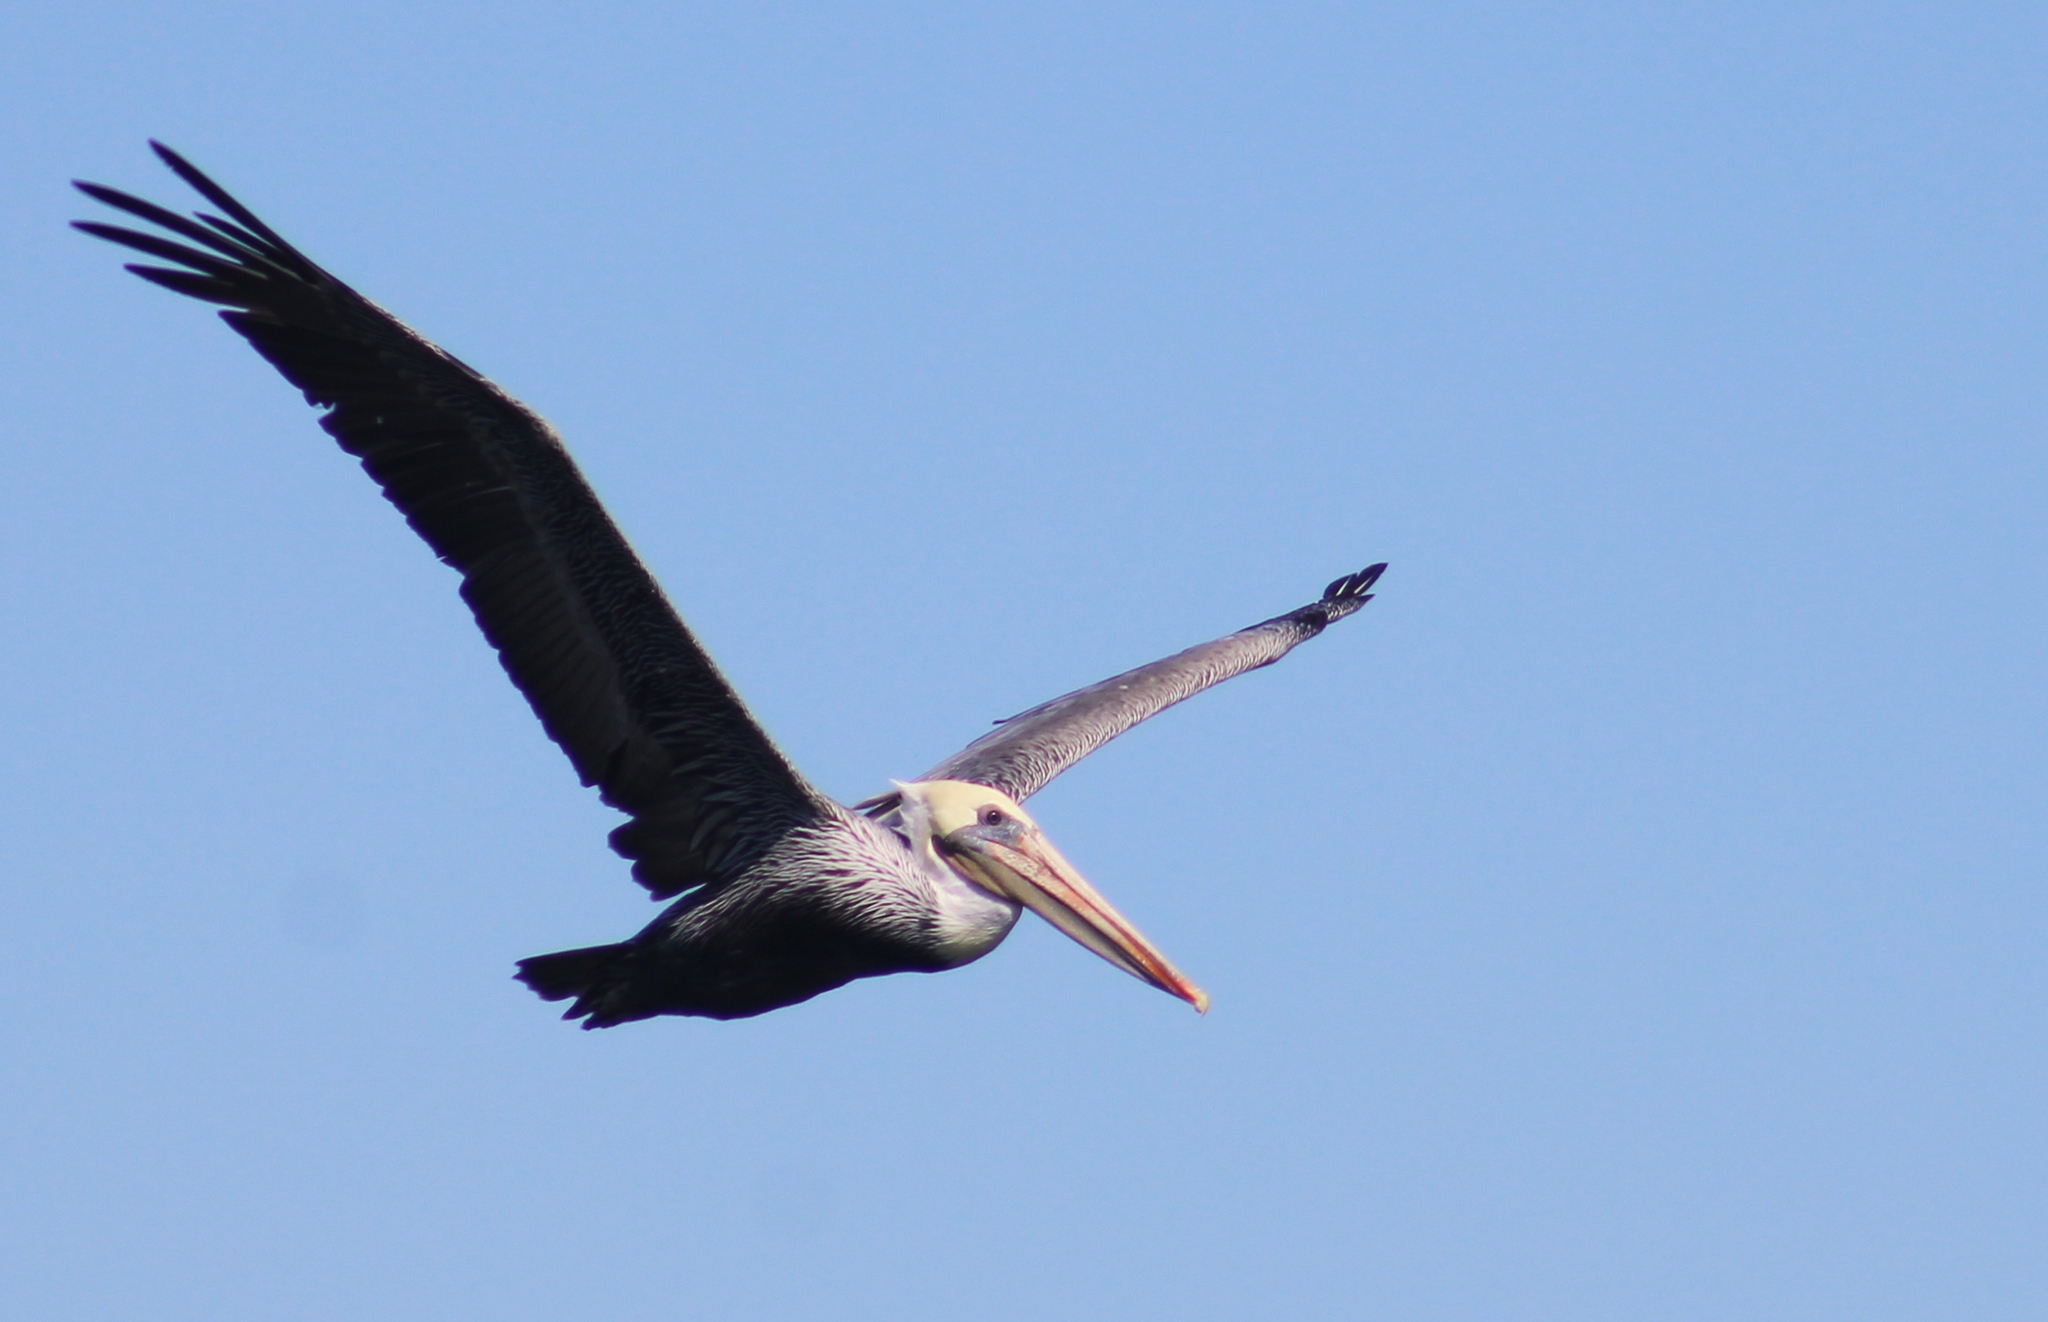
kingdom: Animalia
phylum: Chordata
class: Aves
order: Pelecaniformes
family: Pelecanidae
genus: Pelecanus
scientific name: Pelecanus occidentalis
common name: Brown pelican
